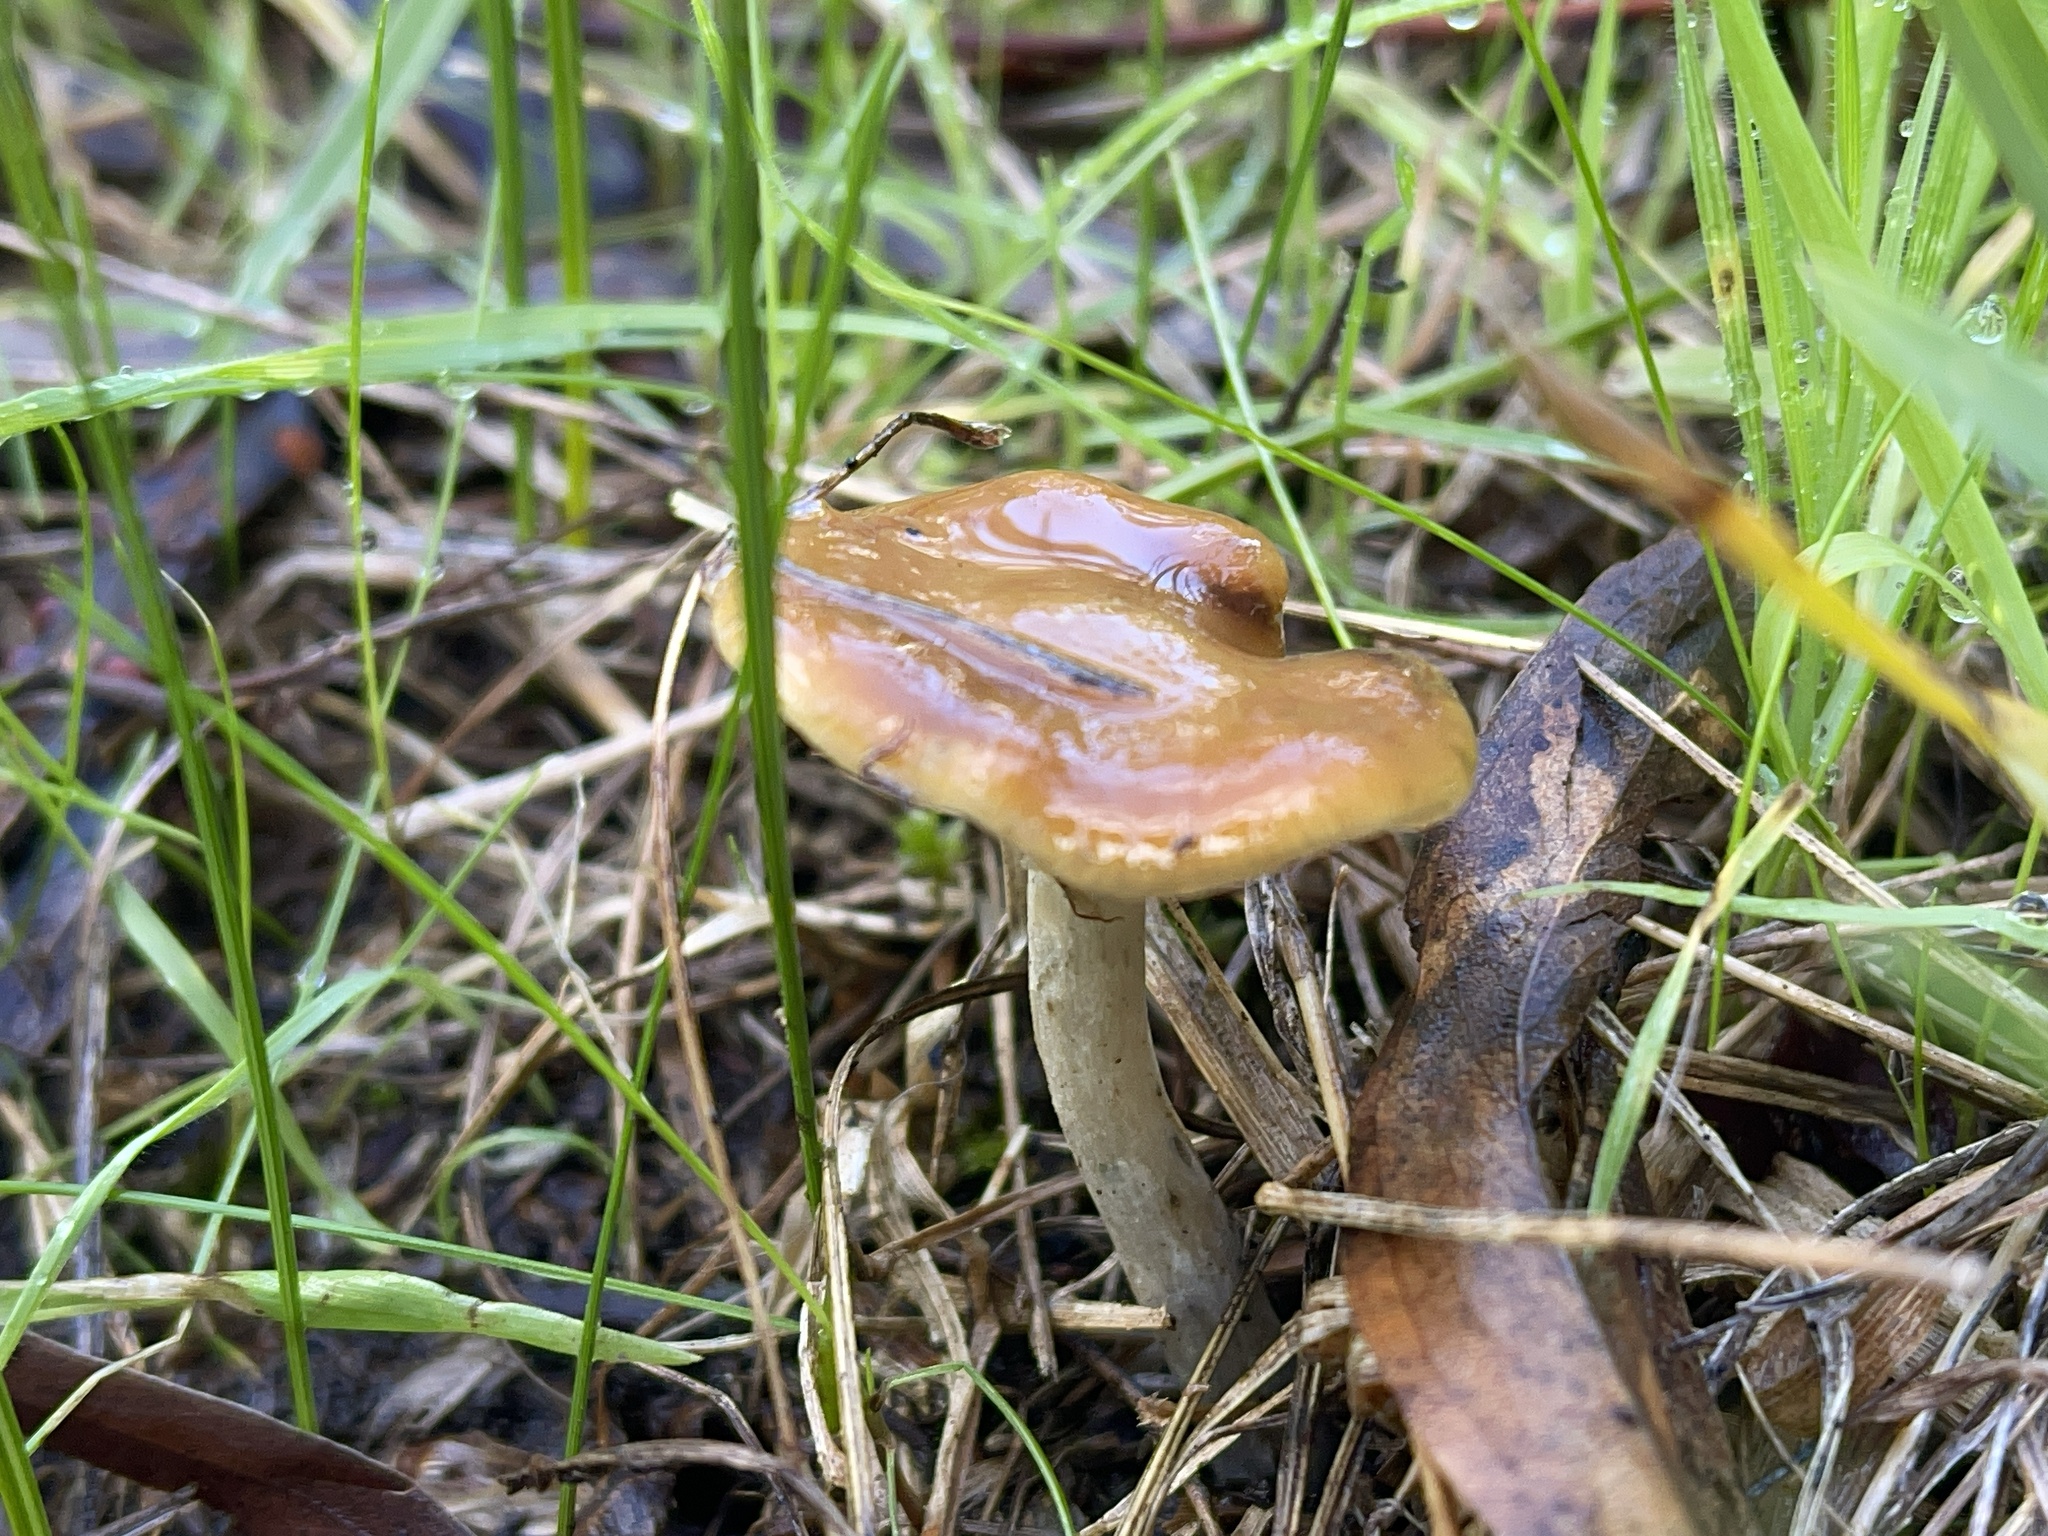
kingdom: Fungi
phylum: Basidiomycota
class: Agaricomycetes
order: Agaricales
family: Hymenogastraceae
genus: Psilocybe
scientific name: Psilocybe subaeruginosa
